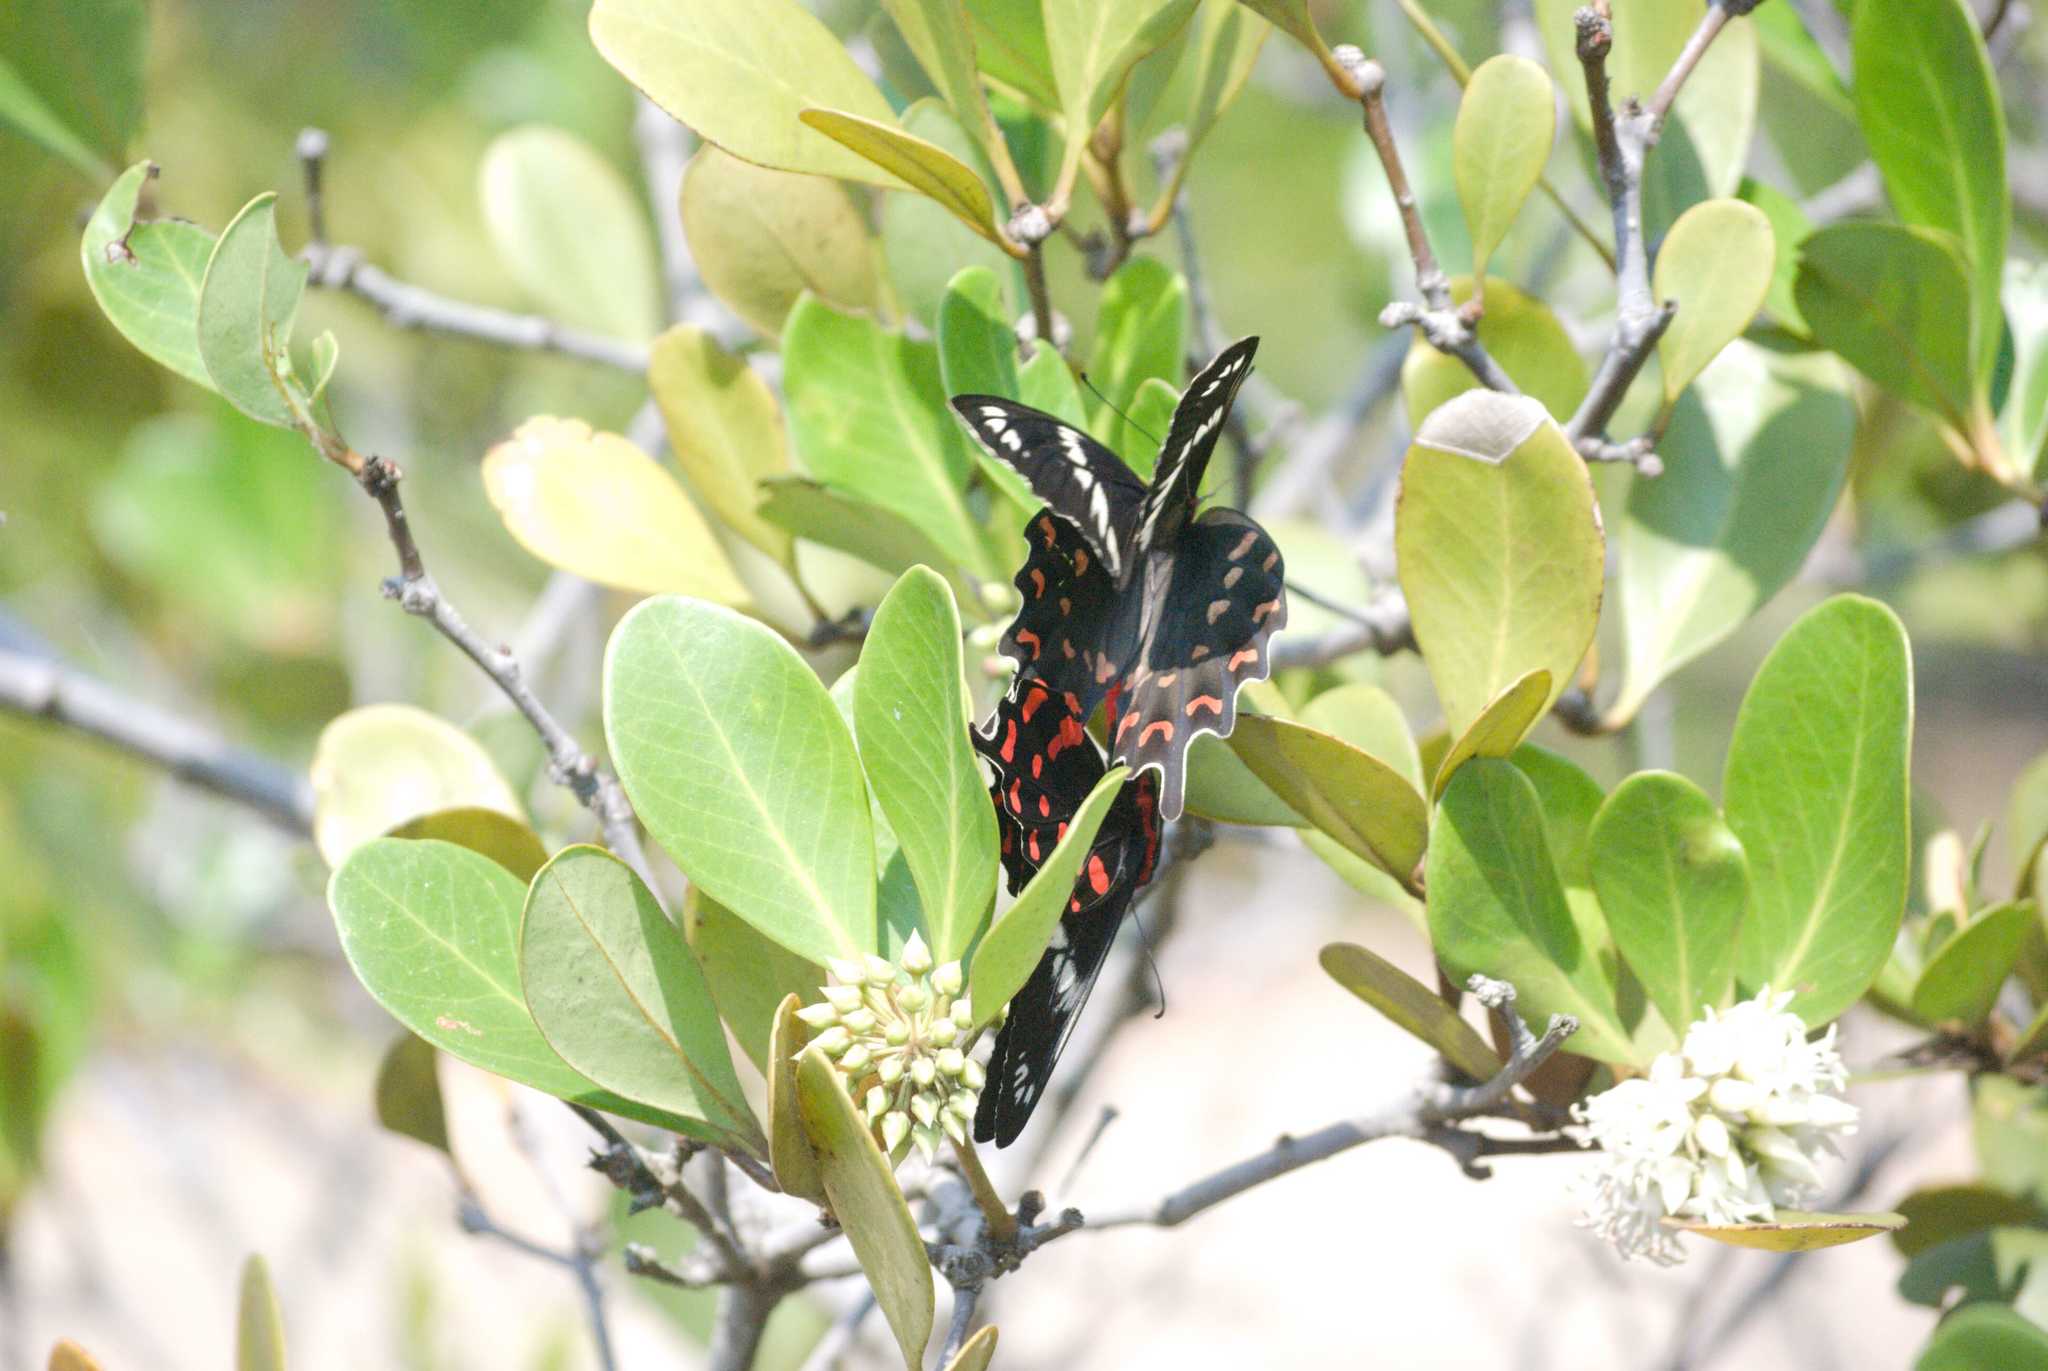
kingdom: Animalia
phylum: Arthropoda
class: Insecta
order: Lepidoptera
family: Papilionidae
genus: Pachliopta
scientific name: Pachliopta hector
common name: Crimson rose
